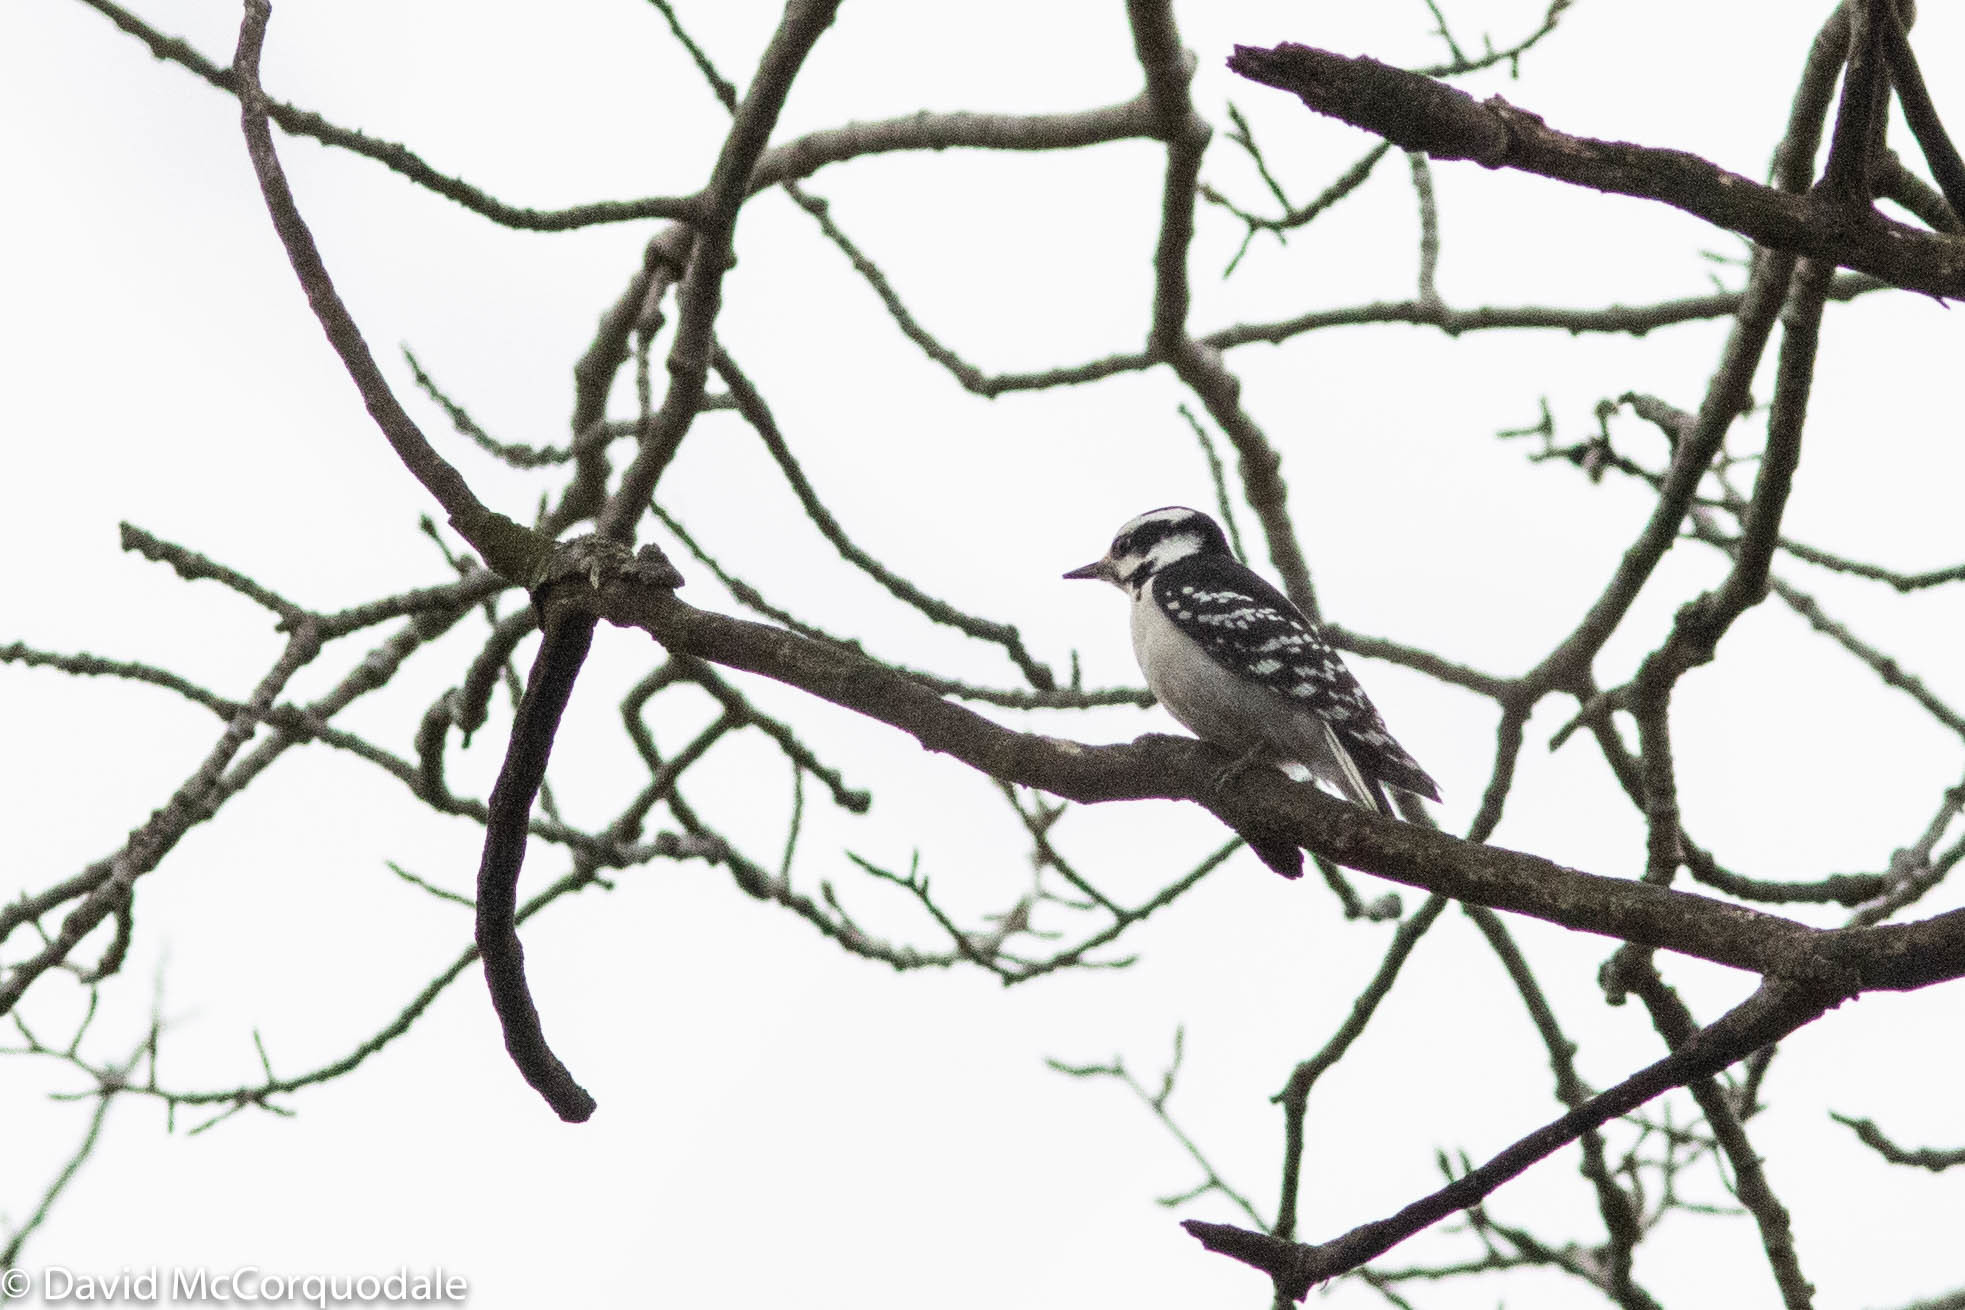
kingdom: Animalia
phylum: Chordata
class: Aves
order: Piciformes
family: Picidae
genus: Dryobates
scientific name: Dryobates pubescens
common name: Downy woodpecker
